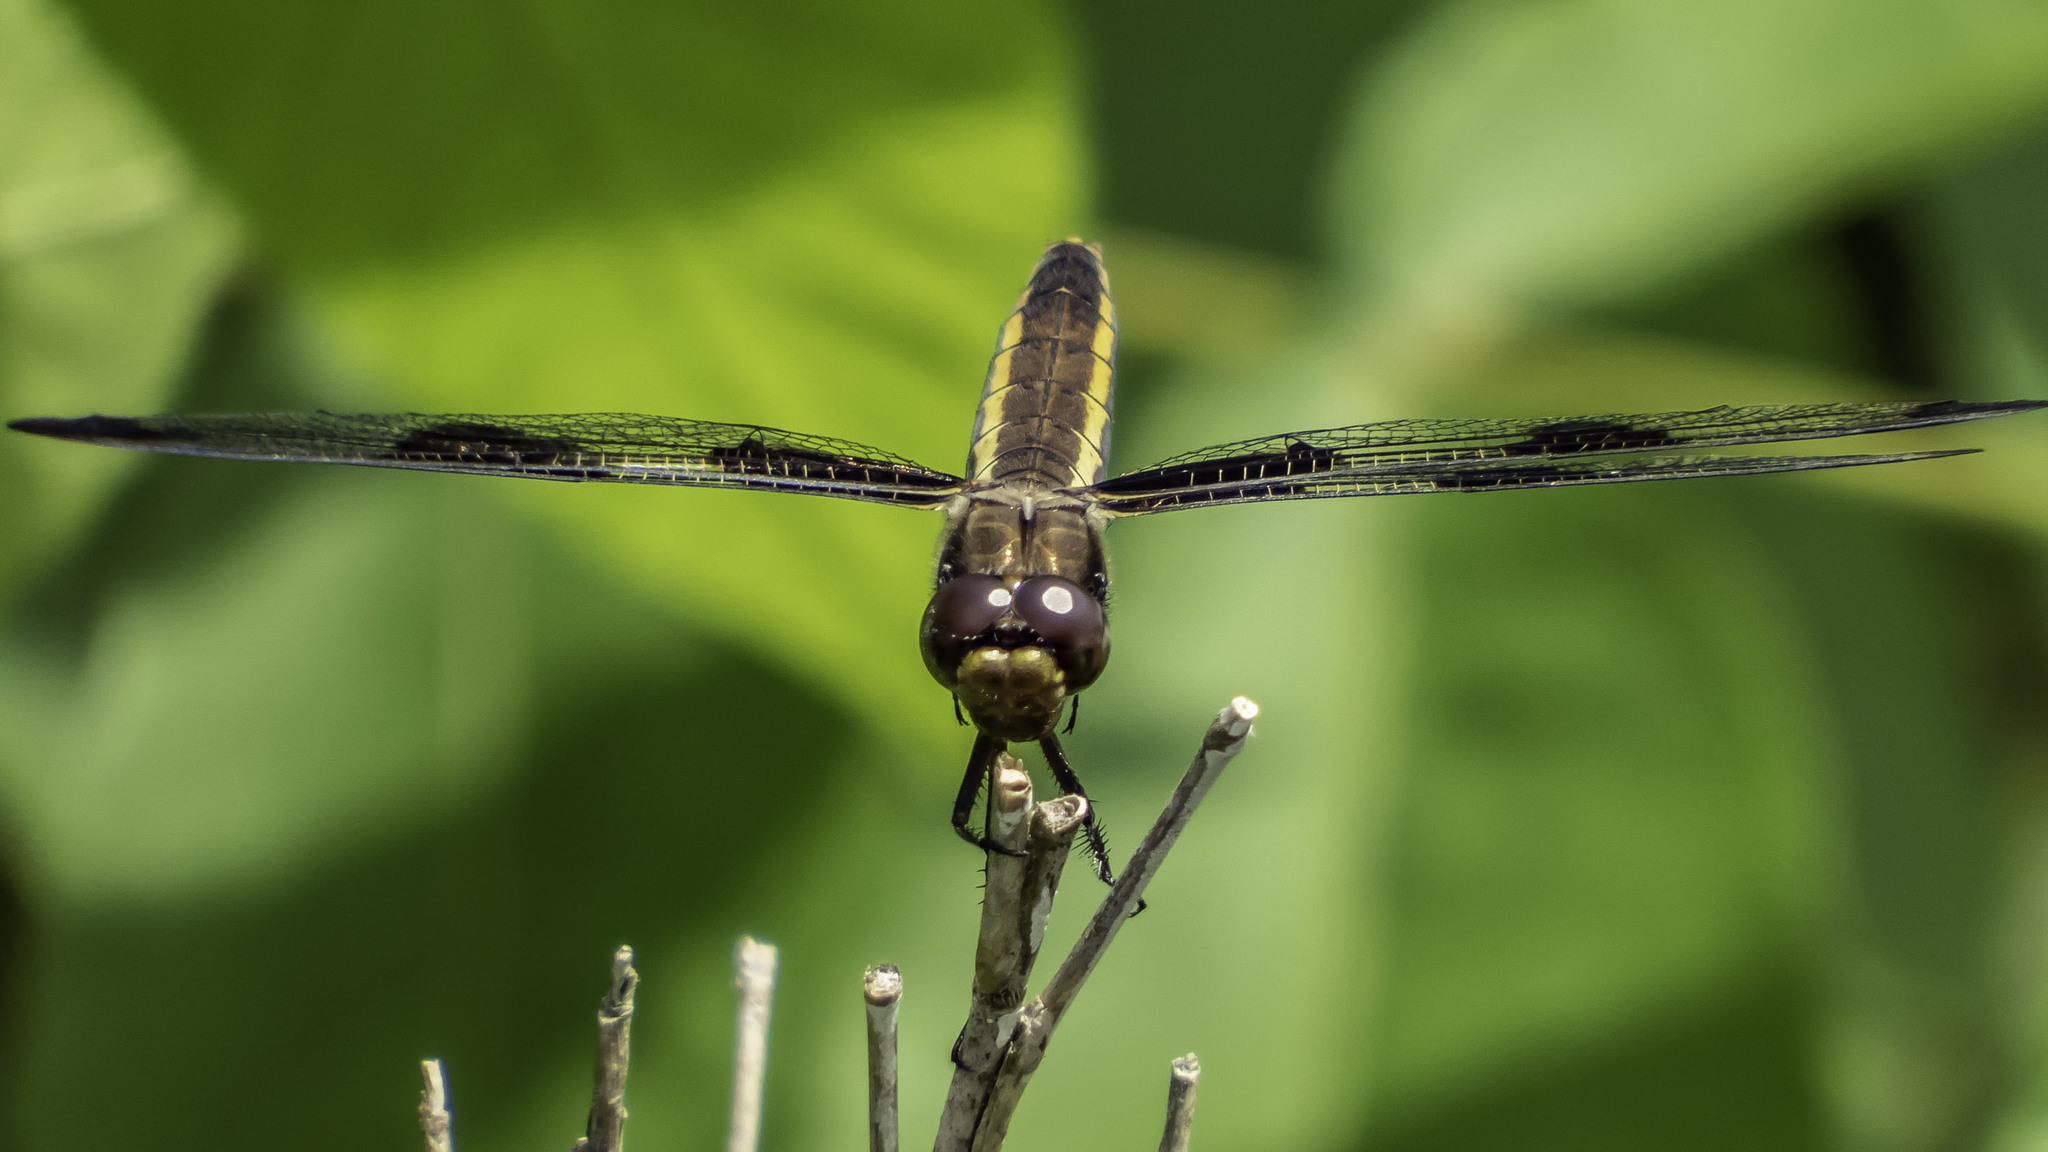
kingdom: Animalia
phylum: Arthropoda
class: Insecta
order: Odonata
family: Libellulidae
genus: Libellula
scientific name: Libellula pulchella
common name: Twelve-spotted skimmer
